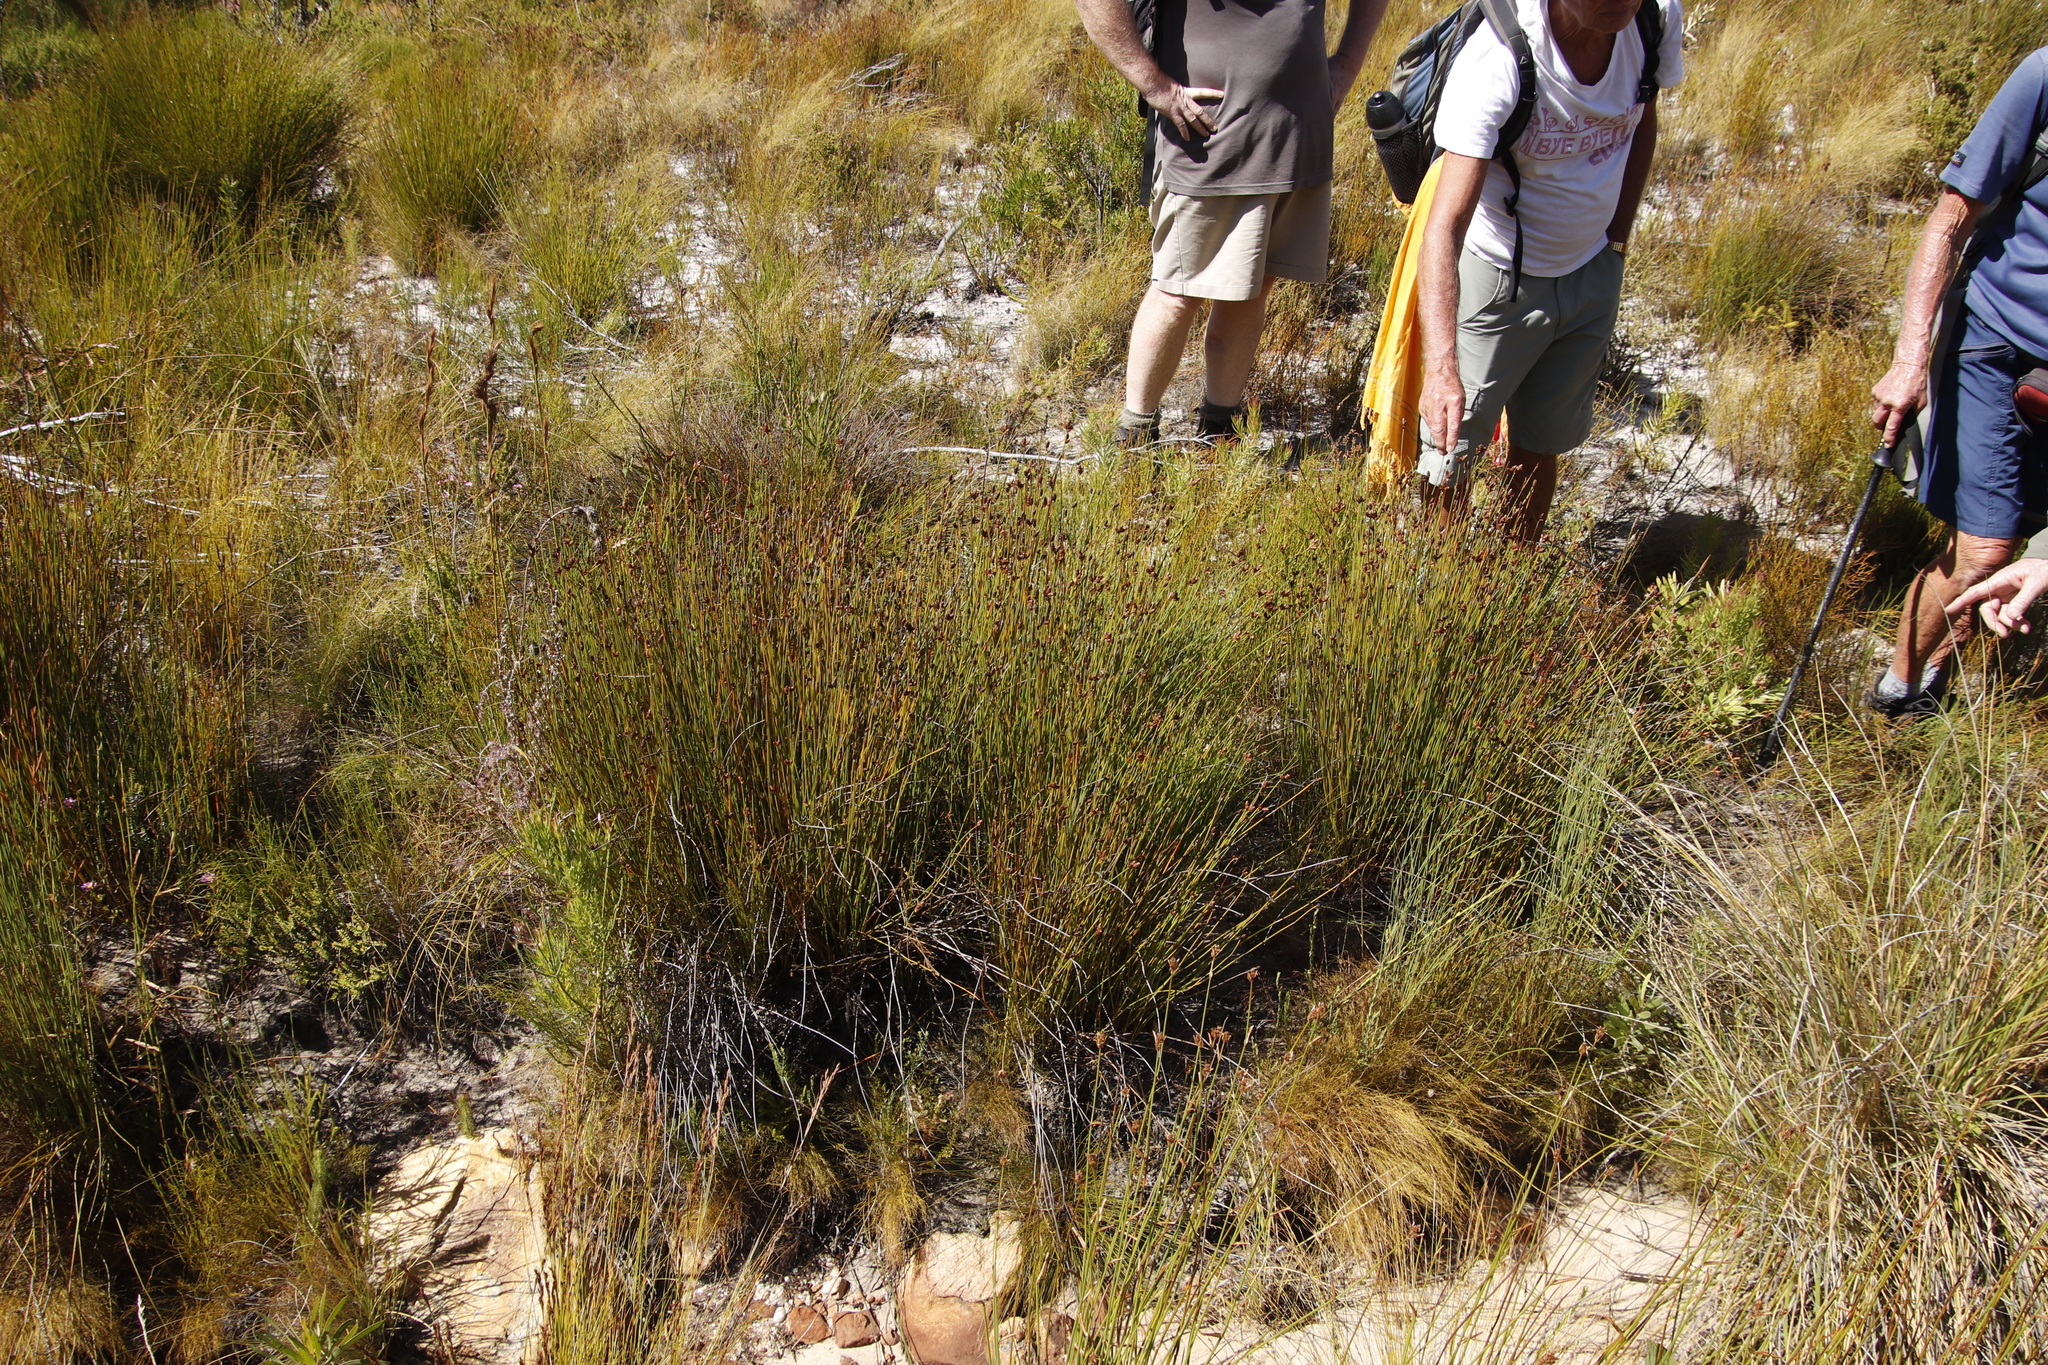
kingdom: Plantae
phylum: Tracheophyta
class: Liliopsida
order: Poales
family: Restionaceae
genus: Nevillea
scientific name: Nevillea obtusissimus
